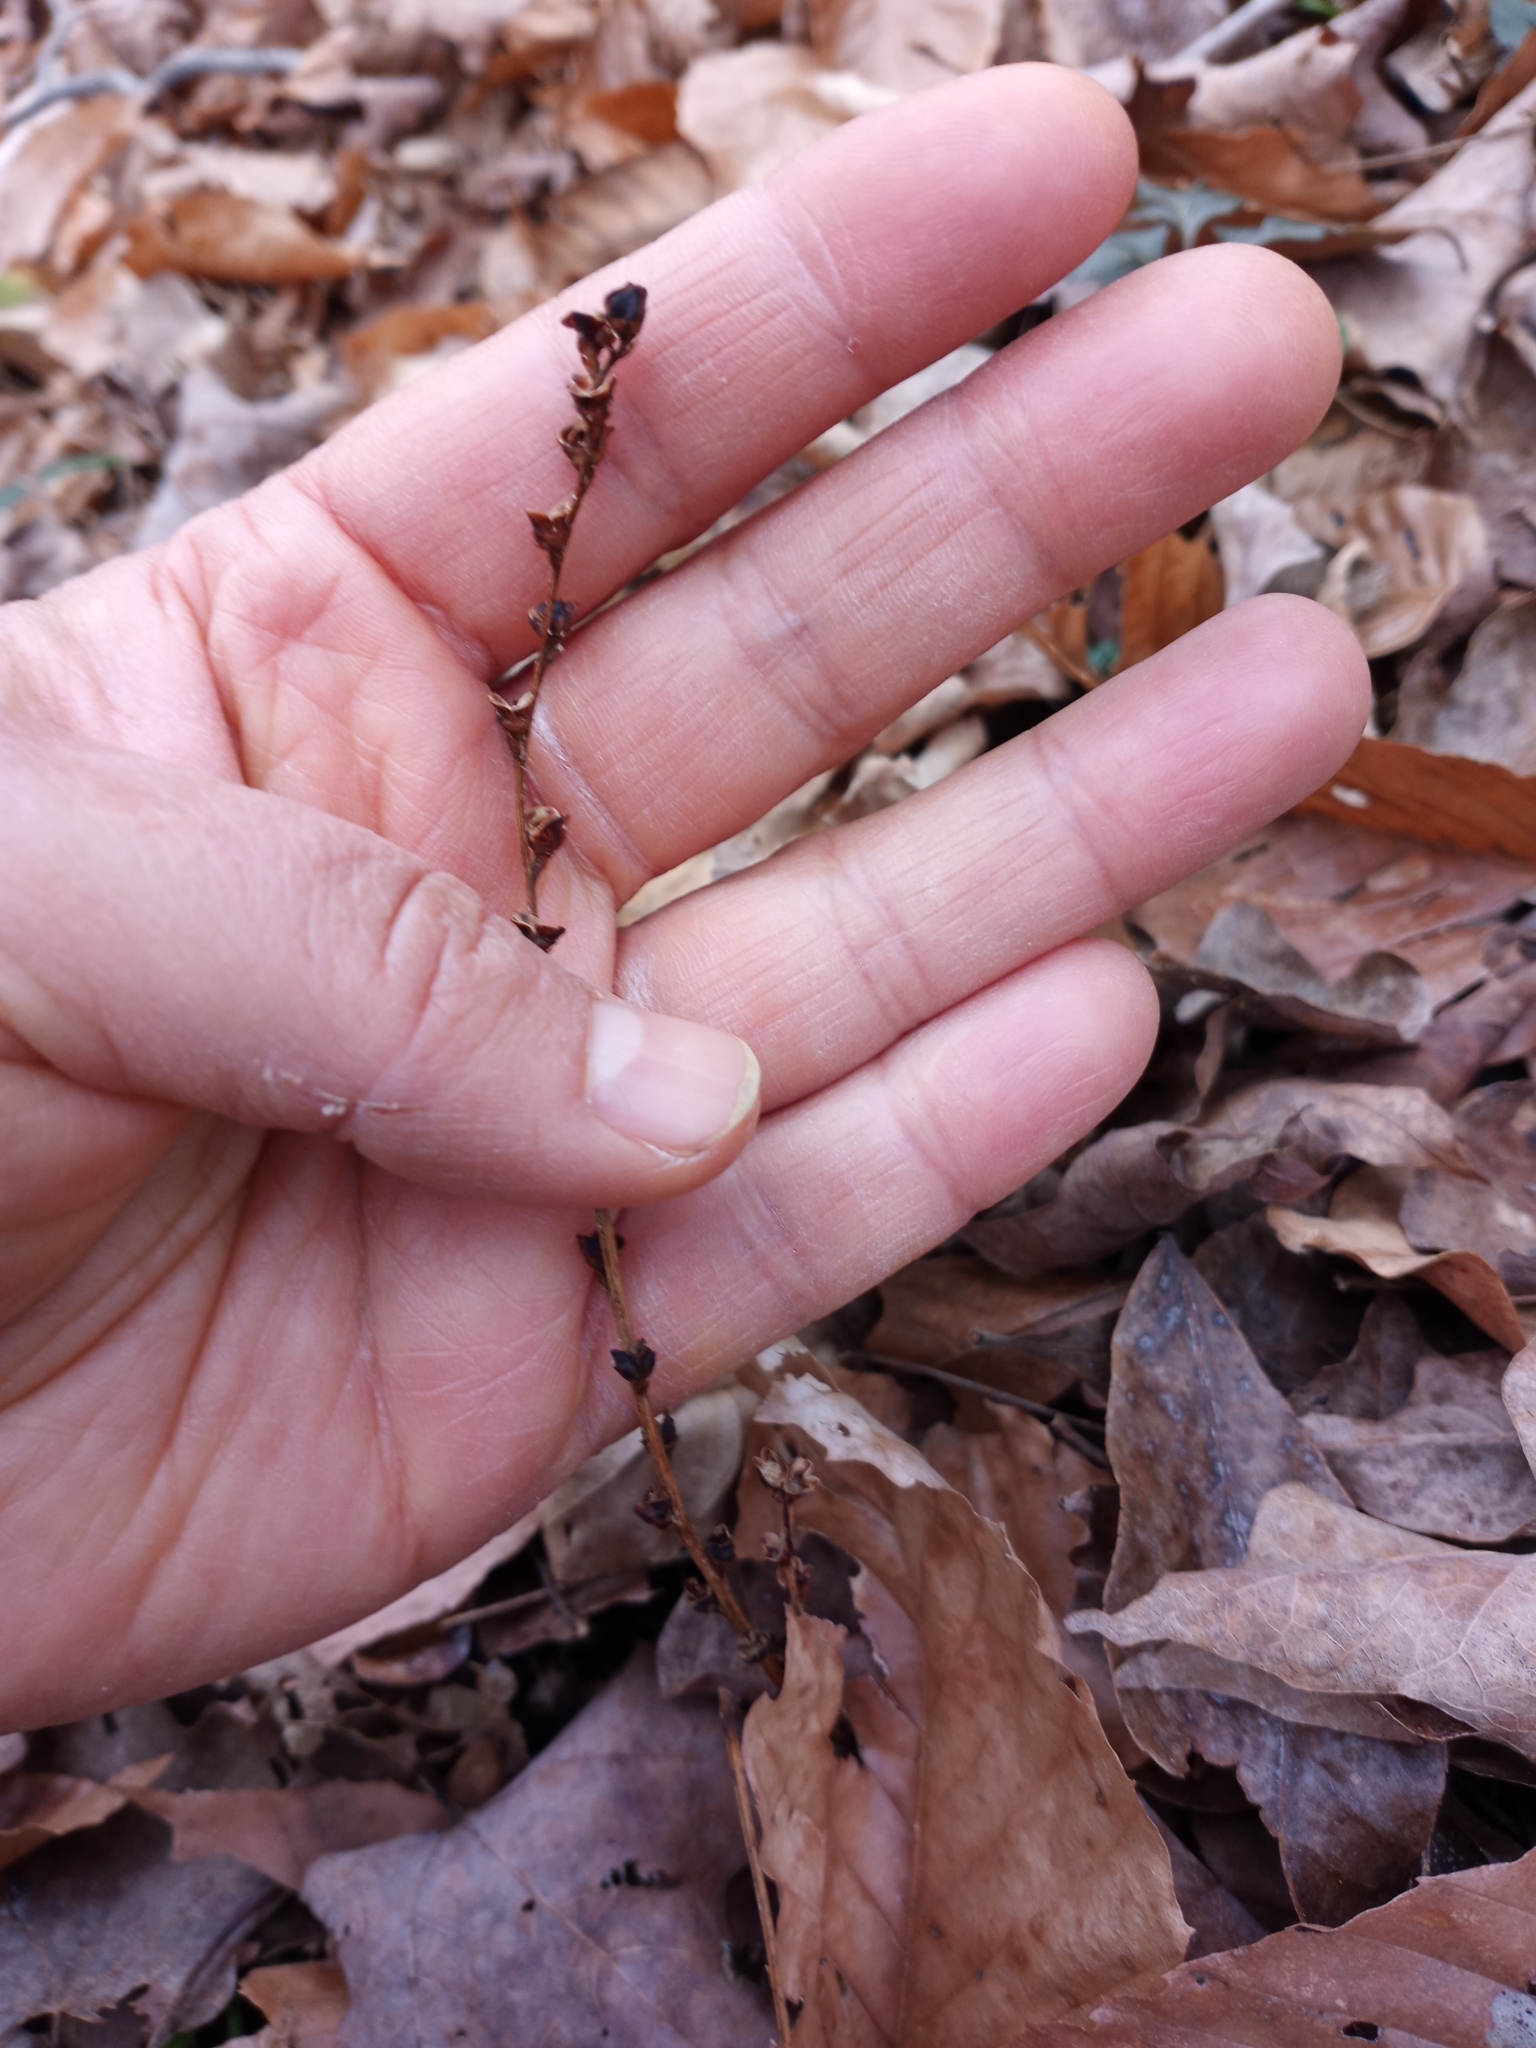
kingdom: Plantae
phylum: Tracheophyta
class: Magnoliopsida
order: Lamiales
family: Orobanchaceae
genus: Epifagus
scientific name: Epifagus virginiana
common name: Beechdrops
